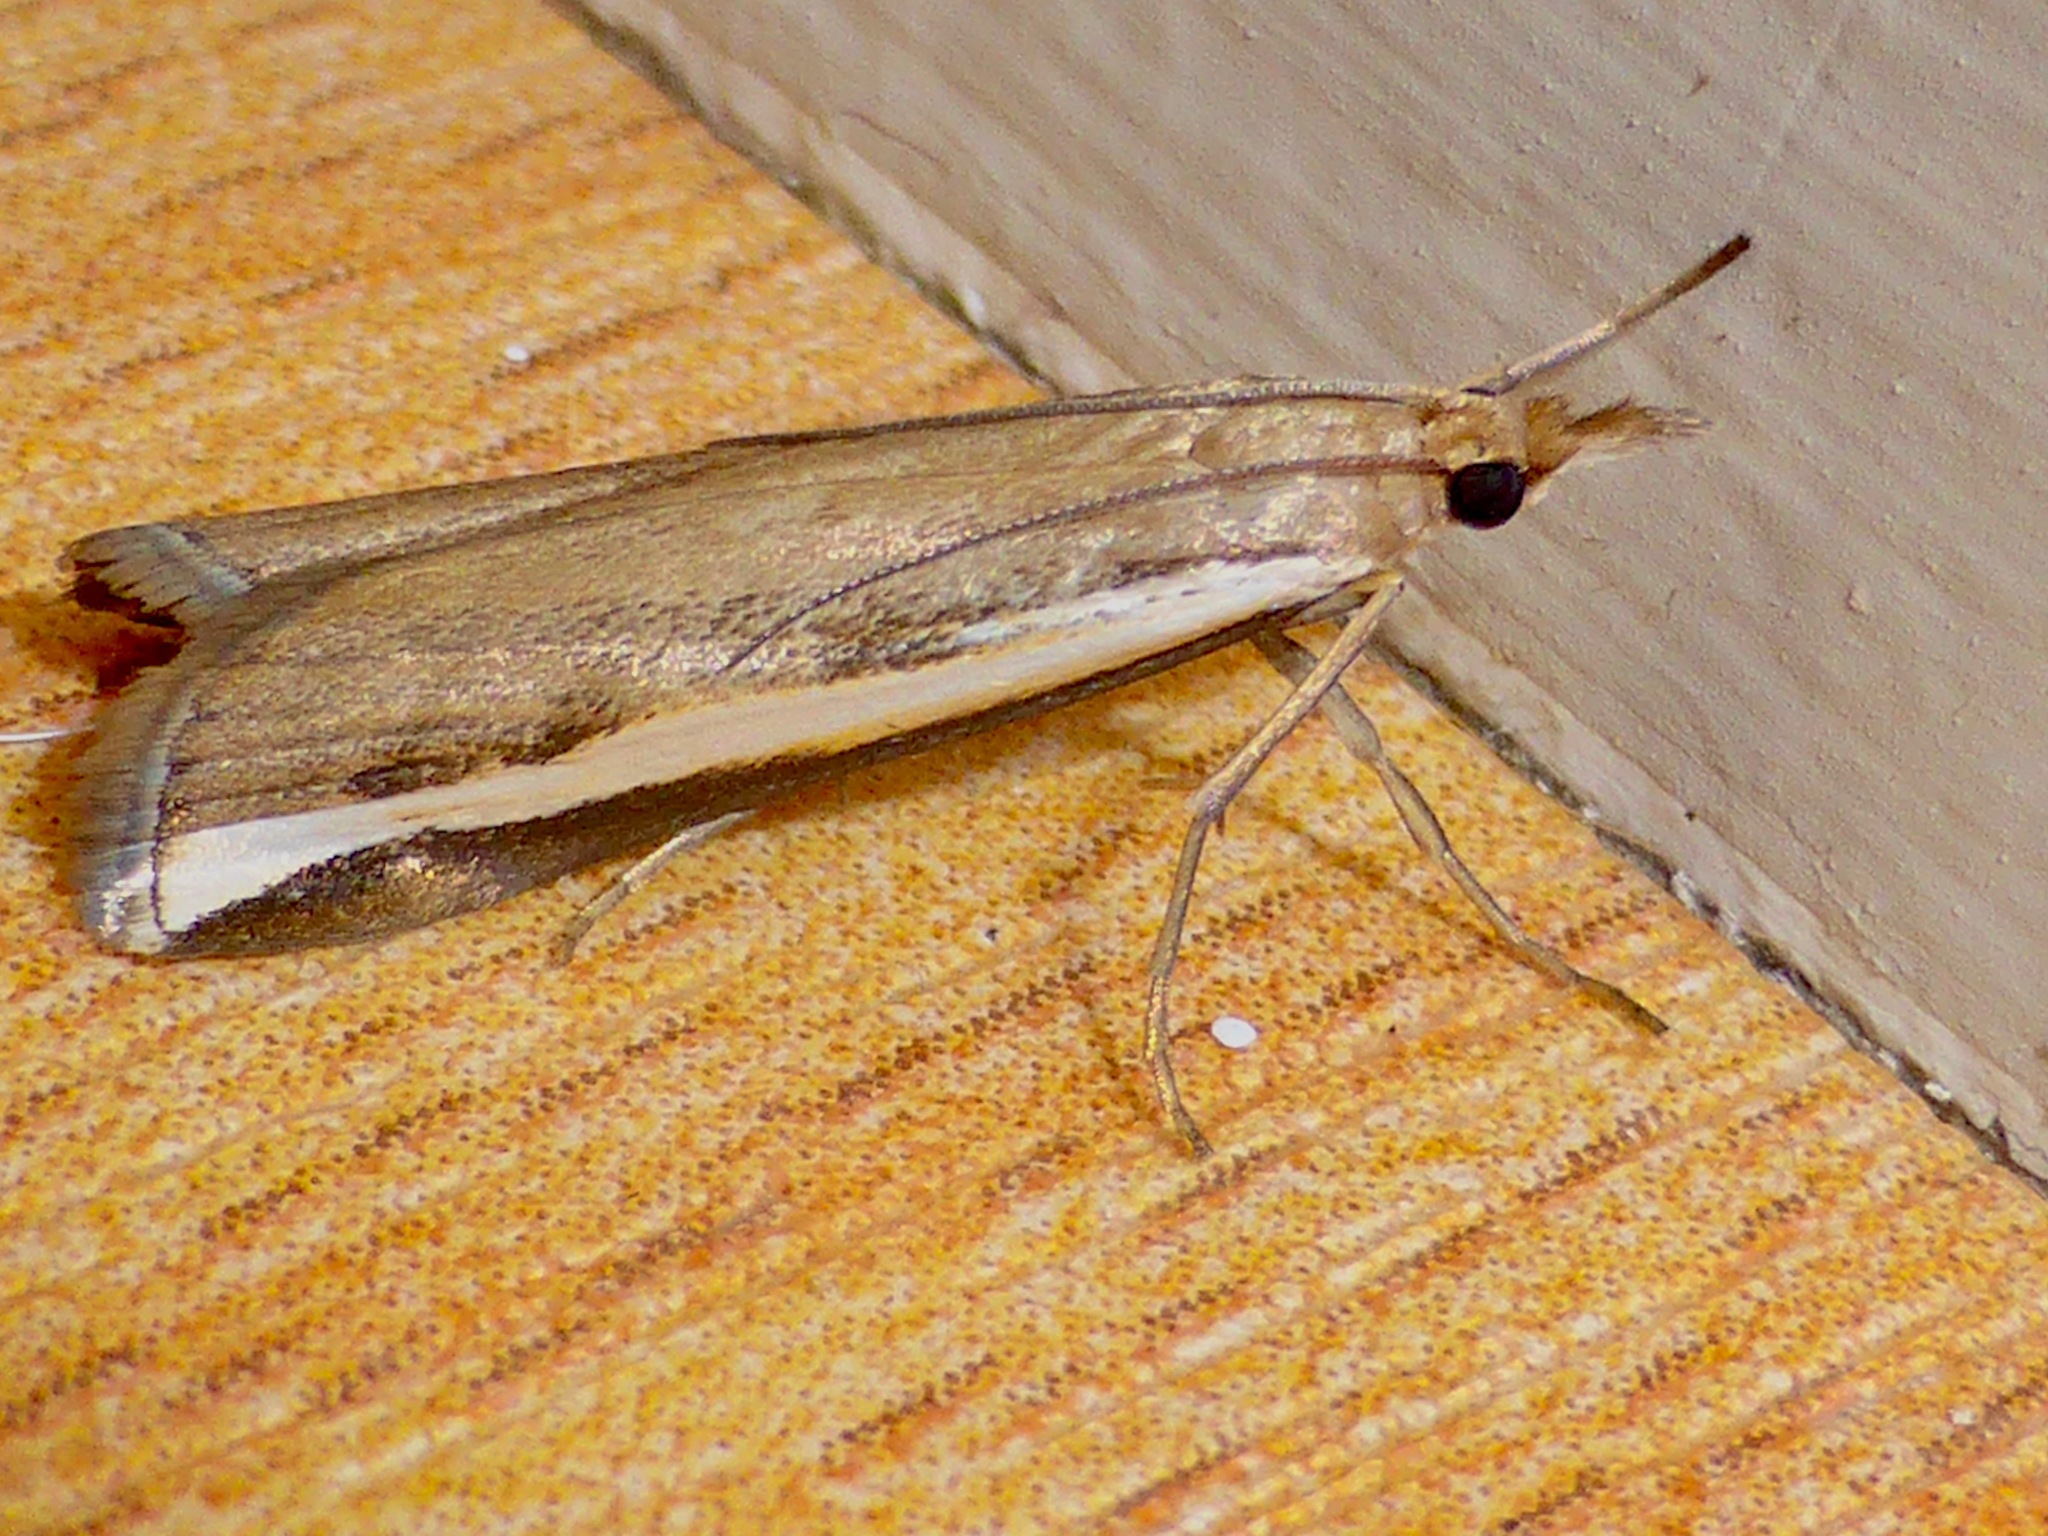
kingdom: Animalia
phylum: Arthropoda
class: Insecta
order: Lepidoptera
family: Crambidae
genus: Orocrambus
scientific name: Orocrambus flexuosellus
